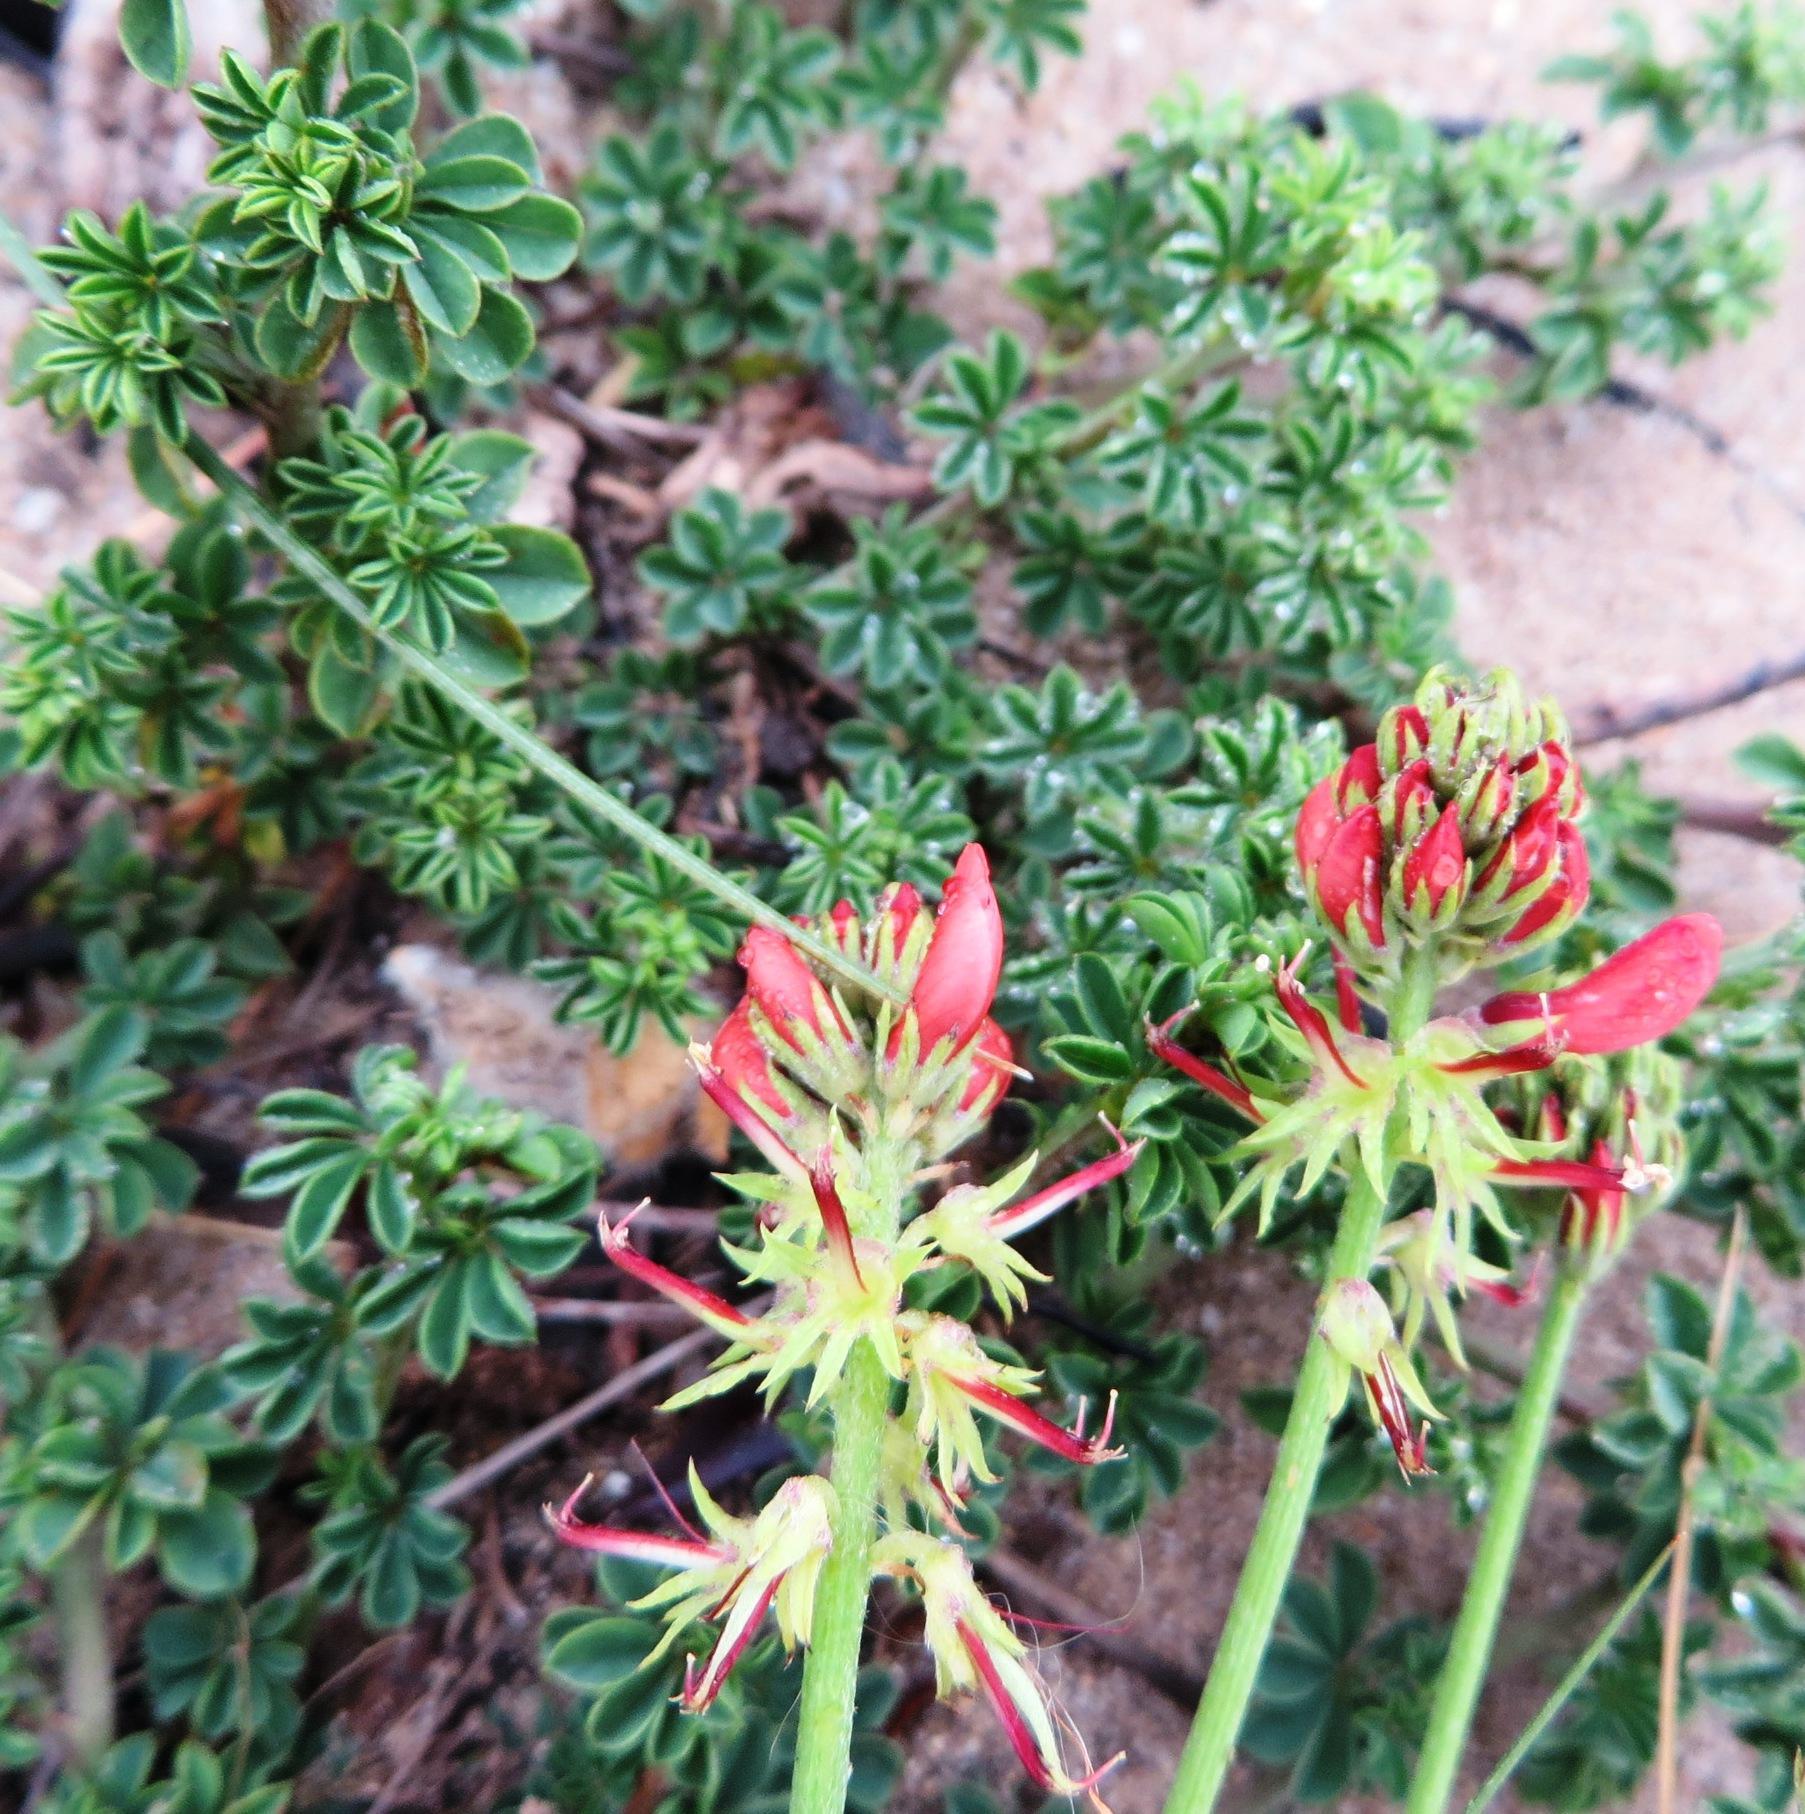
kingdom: Plantae
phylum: Tracheophyta
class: Magnoliopsida
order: Fabales
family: Fabaceae
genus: Indigofera
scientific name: Indigofera digitata
